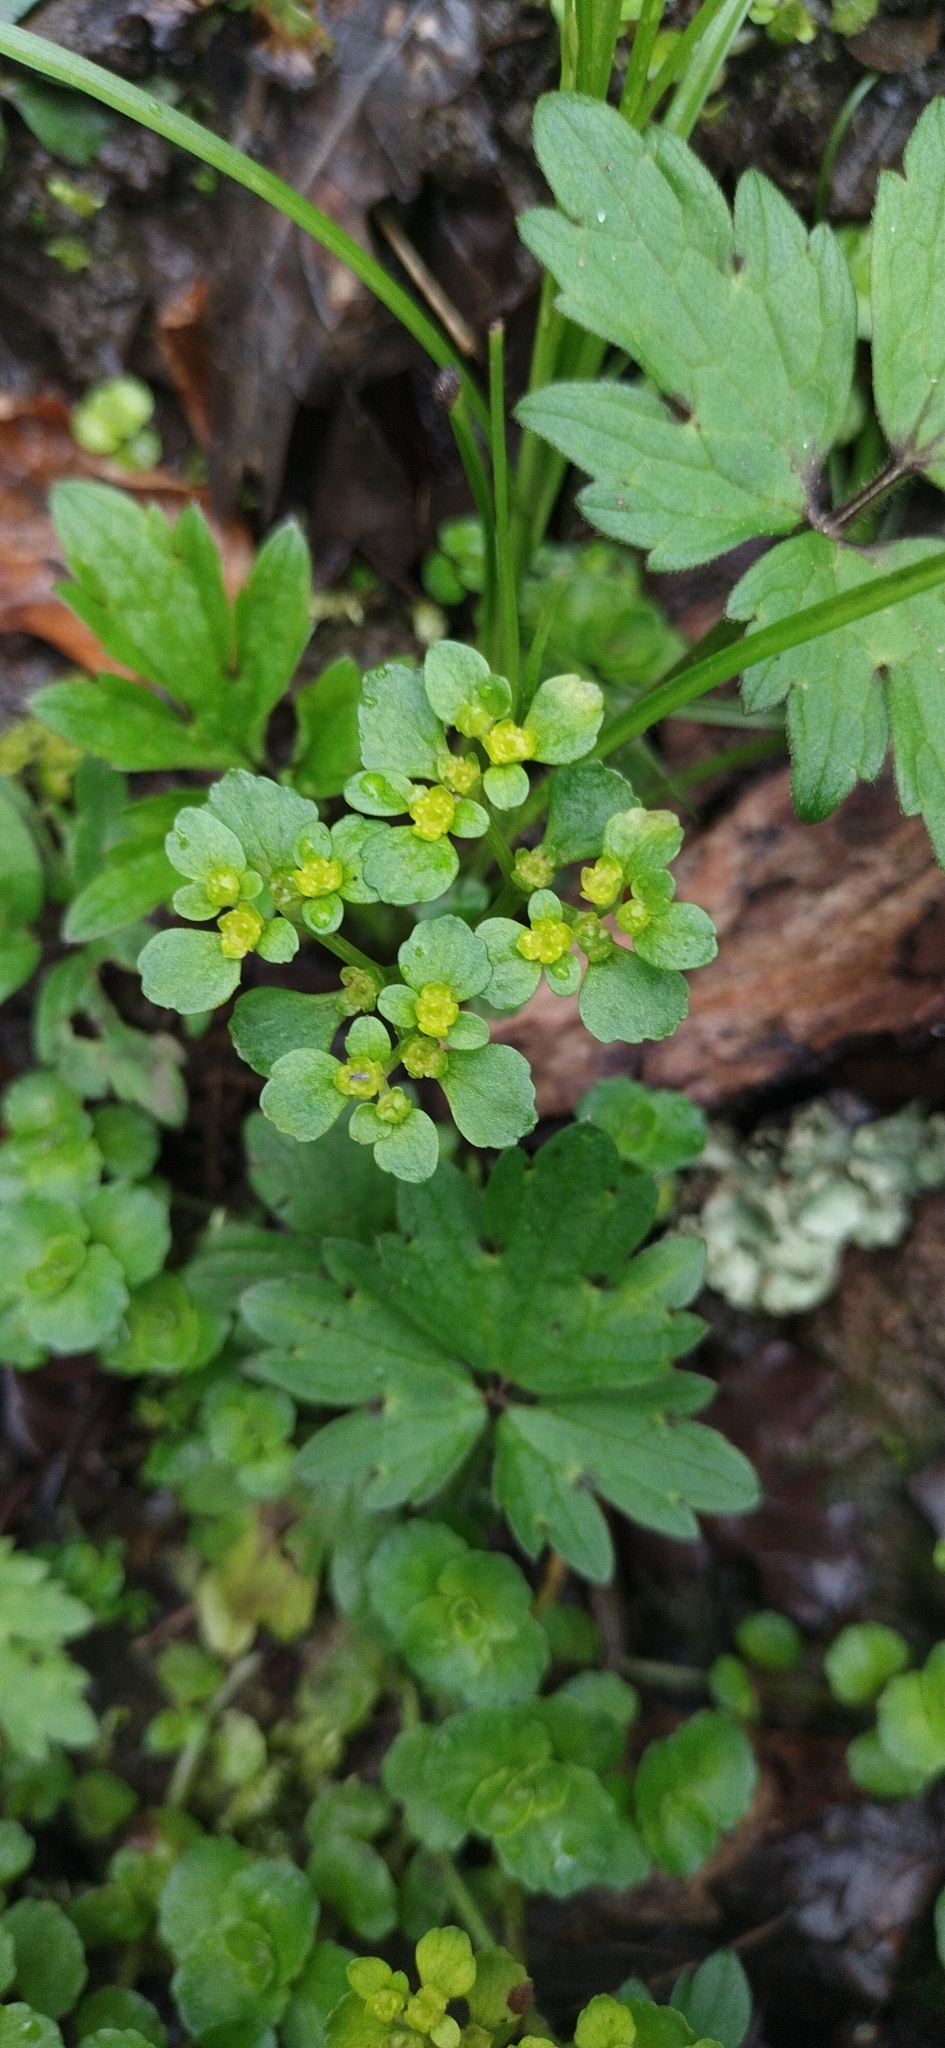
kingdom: Plantae
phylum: Tracheophyta
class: Magnoliopsida
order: Saxifragales
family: Saxifragaceae
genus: Chrysosplenium
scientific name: Chrysosplenium oppositifolium
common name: Opposite-leaved golden-saxifrage
